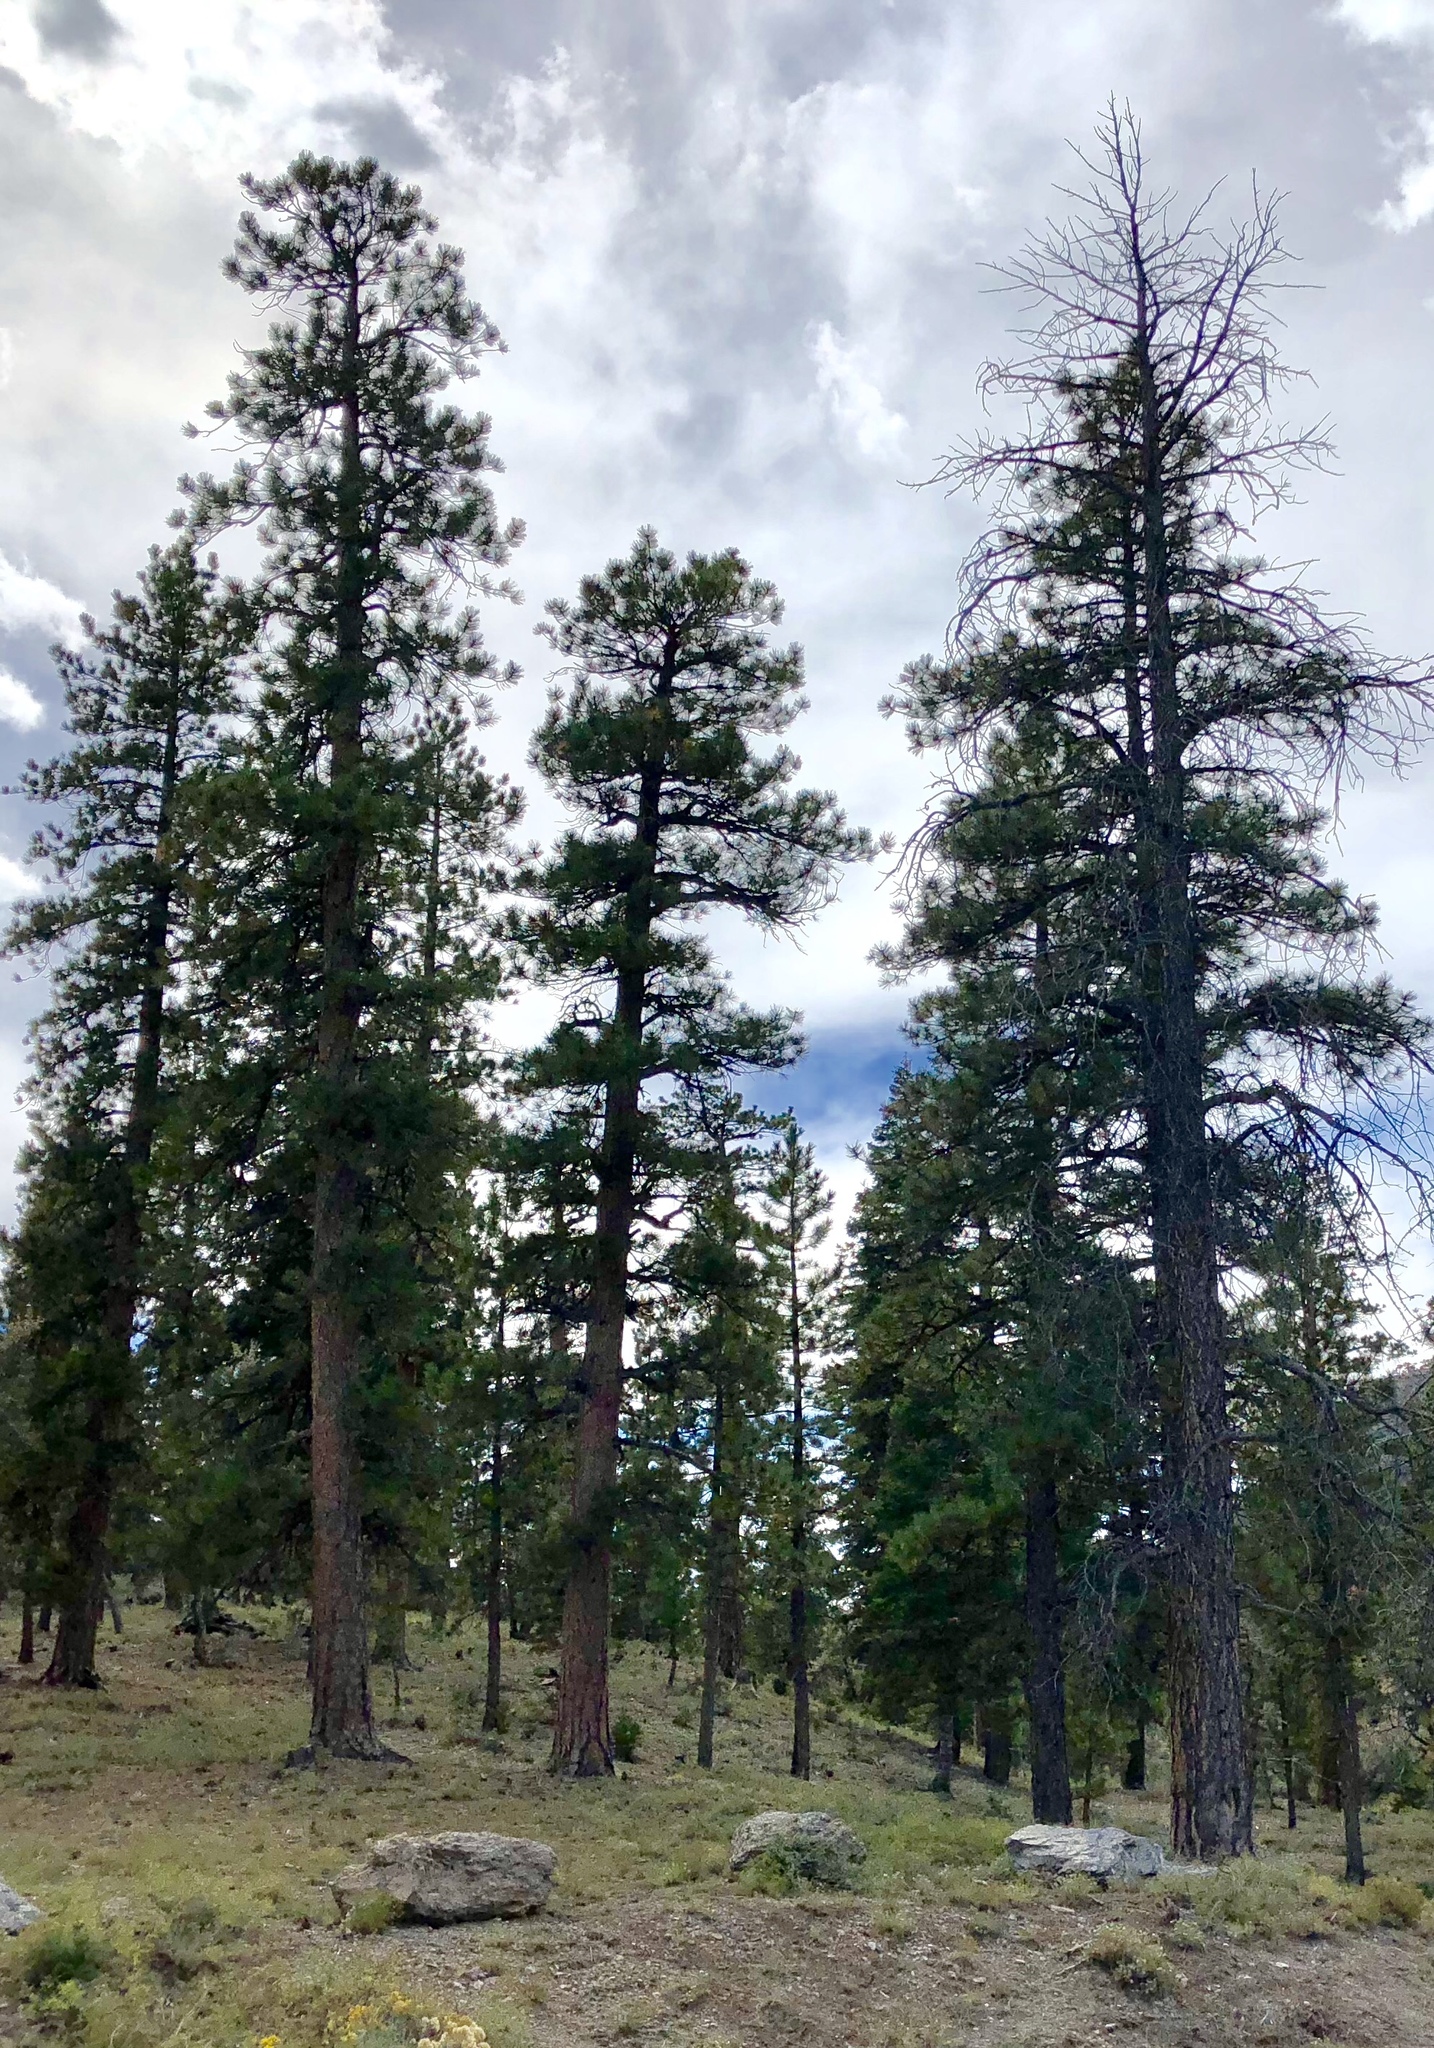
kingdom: Plantae
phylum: Tracheophyta
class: Pinopsida
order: Pinales
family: Pinaceae
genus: Pinus
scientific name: Pinus ponderosa
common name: Western yellow-pine
